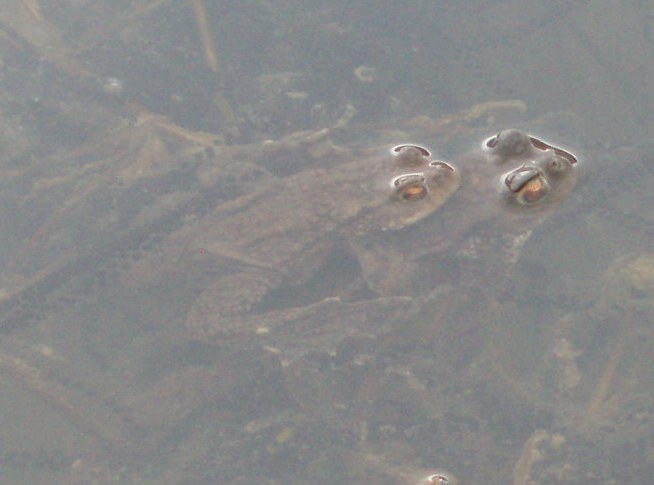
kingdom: Animalia
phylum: Chordata
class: Amphibia
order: Anura
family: Bufonidae
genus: Bufo
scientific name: Bufo bufo
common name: Common toad
